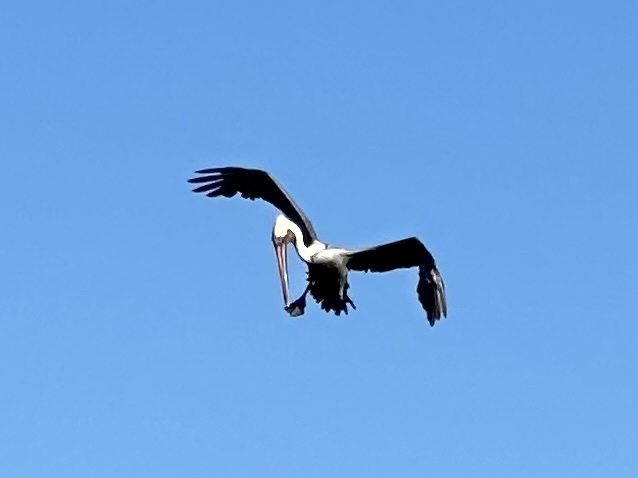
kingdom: Animalia
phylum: Chordata
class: Aves
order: Pelecaniformes
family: Pelecanidae
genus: Pelecanus
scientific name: Pelecanus occidentalis
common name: Brown pelican
